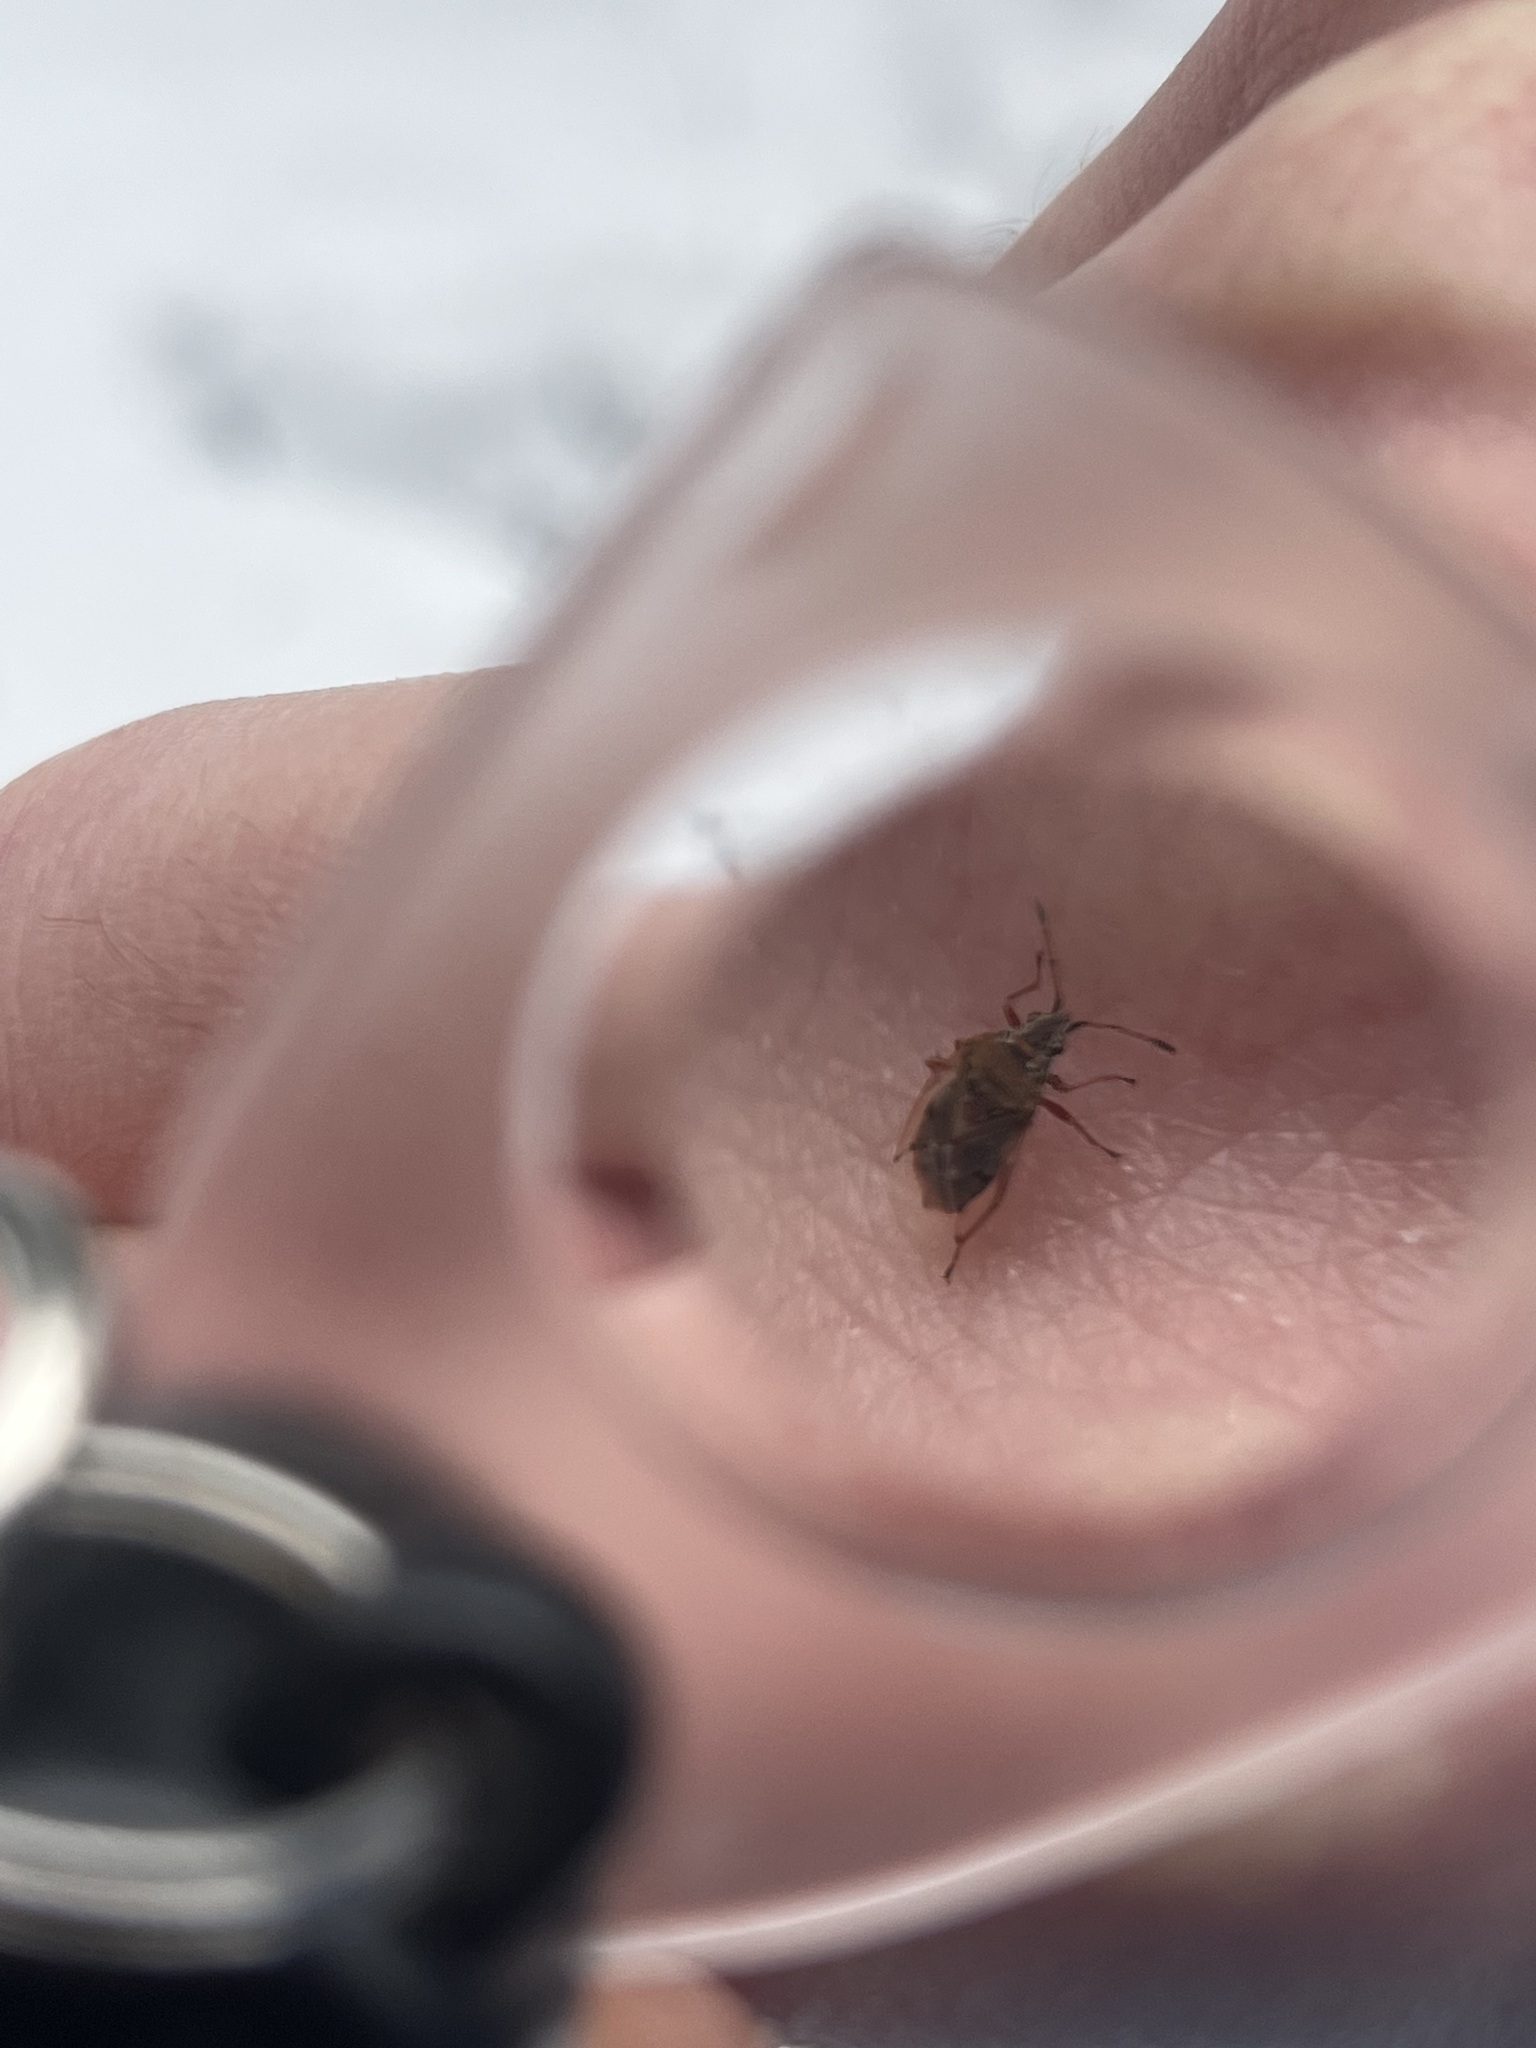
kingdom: Animalia
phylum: Arthropoda
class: Insecta
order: Hemiptera
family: Lygaeidae
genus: Kleidocerys
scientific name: Kleidocerys resedae
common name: Birch catkin bug
